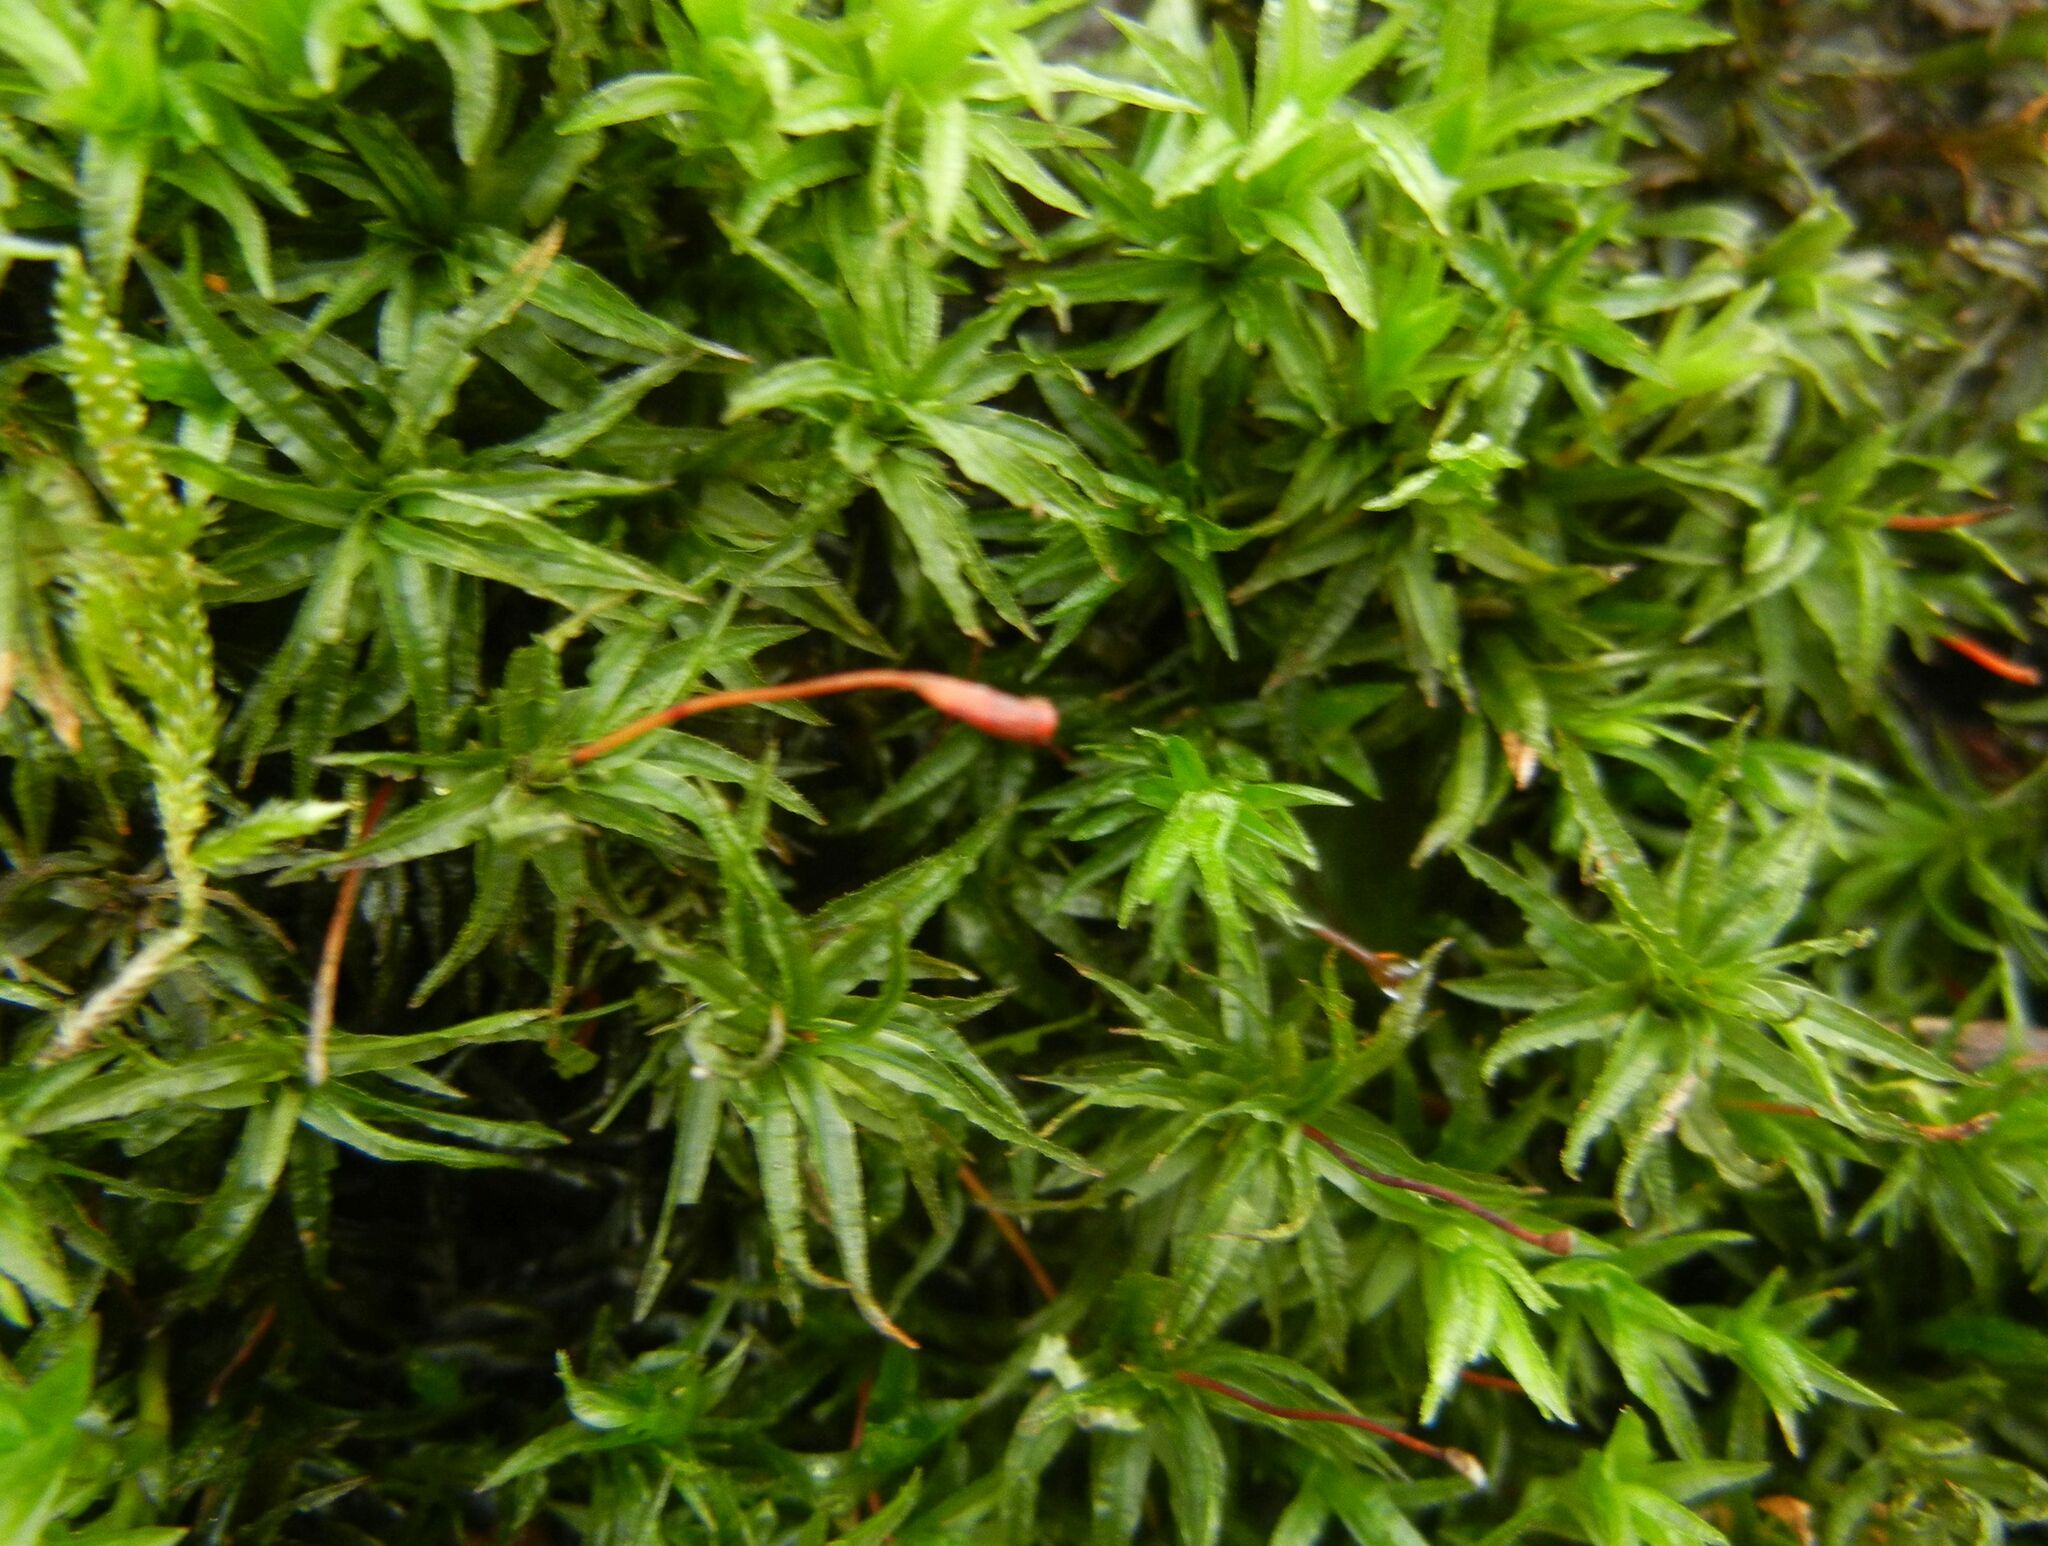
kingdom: Plantae
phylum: Bryophyta
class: Polytrichopsida
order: Polytrichales
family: Polytrichaceae
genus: Atrichum
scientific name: Atrichum undulatum
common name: Common smoothcap
